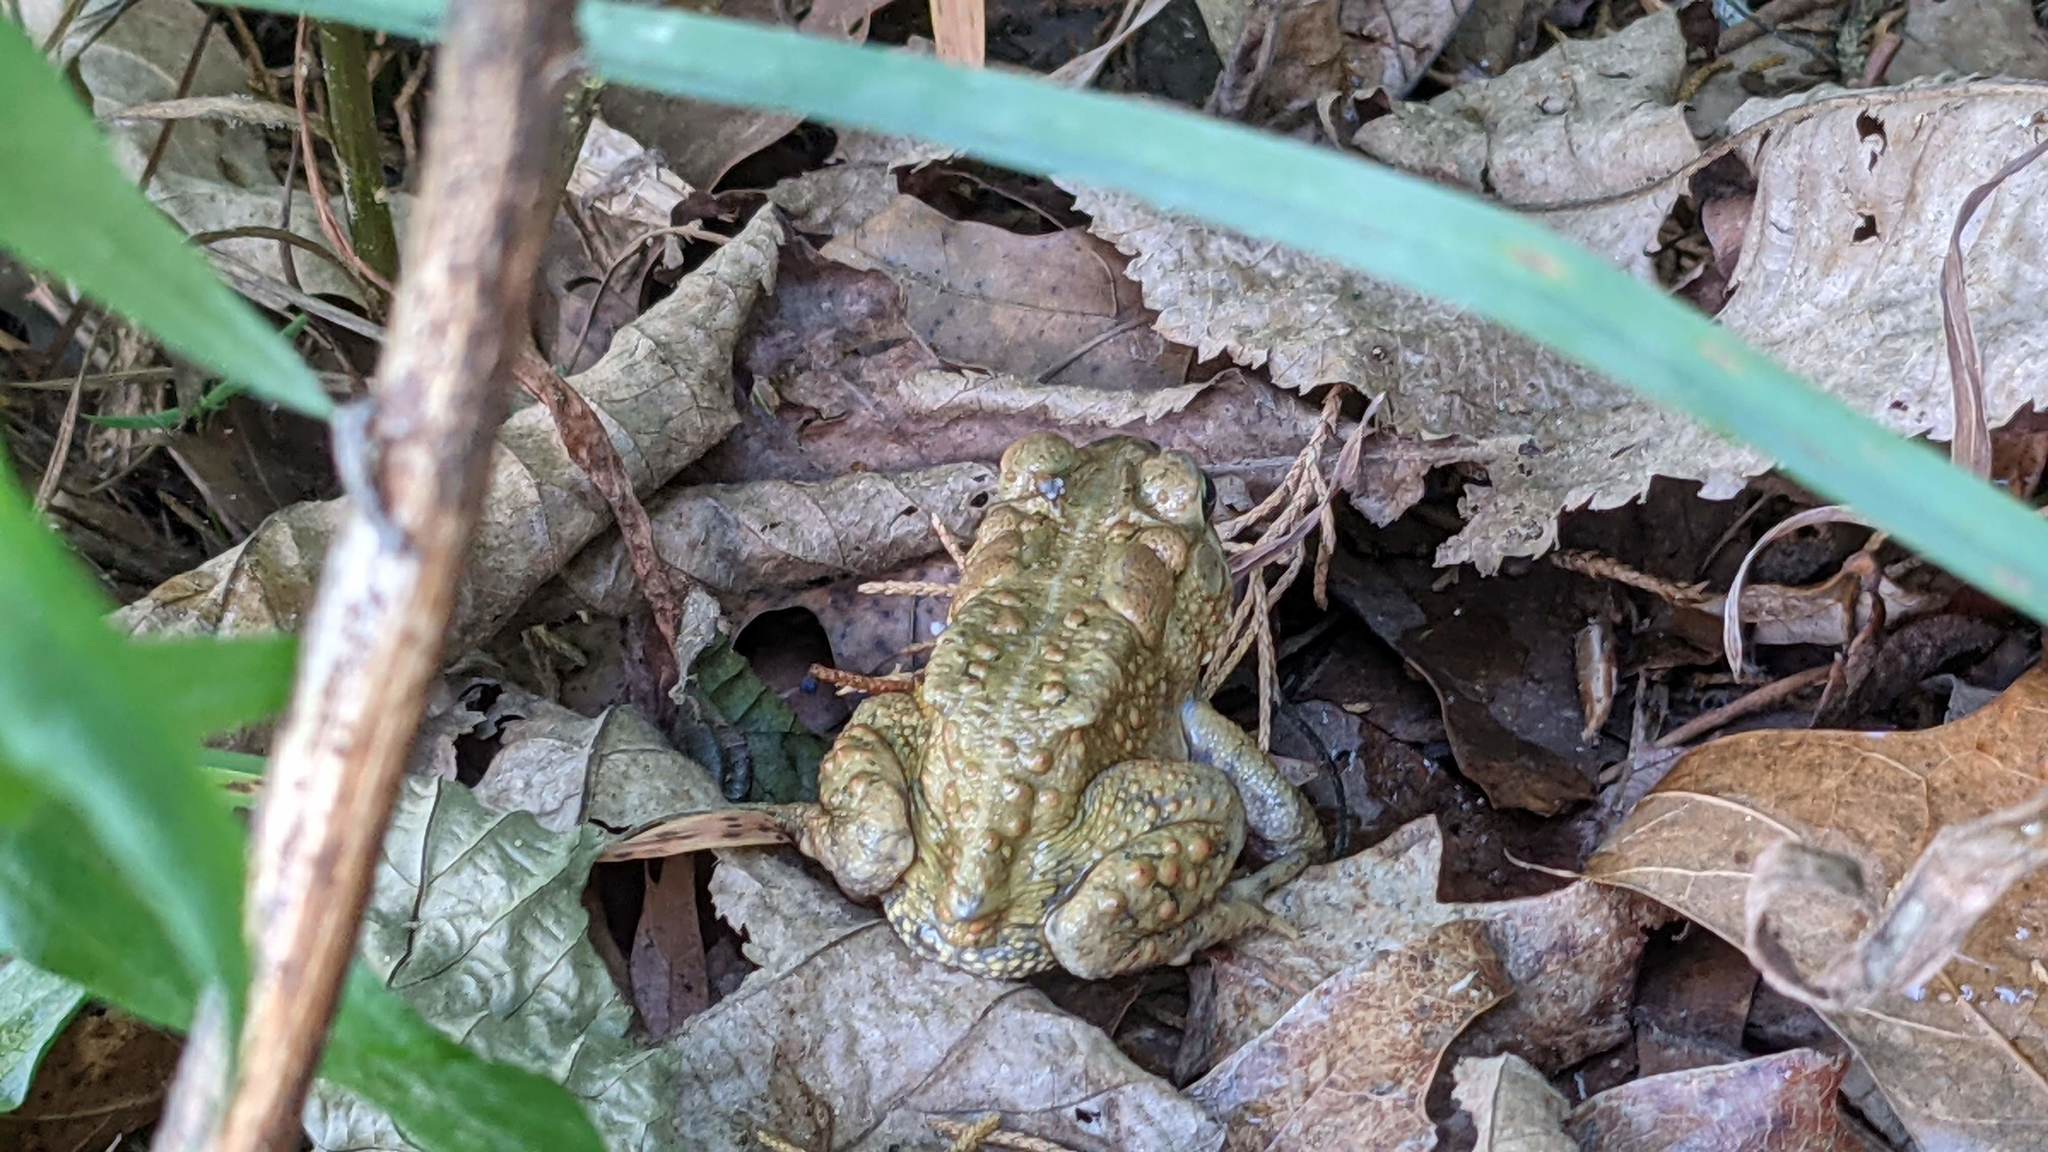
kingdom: Animalia
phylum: Chordata
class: Amphibia
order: Anura
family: Bufonidae
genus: Anaxyrus
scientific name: Anaxyrus americanus
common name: American toad
